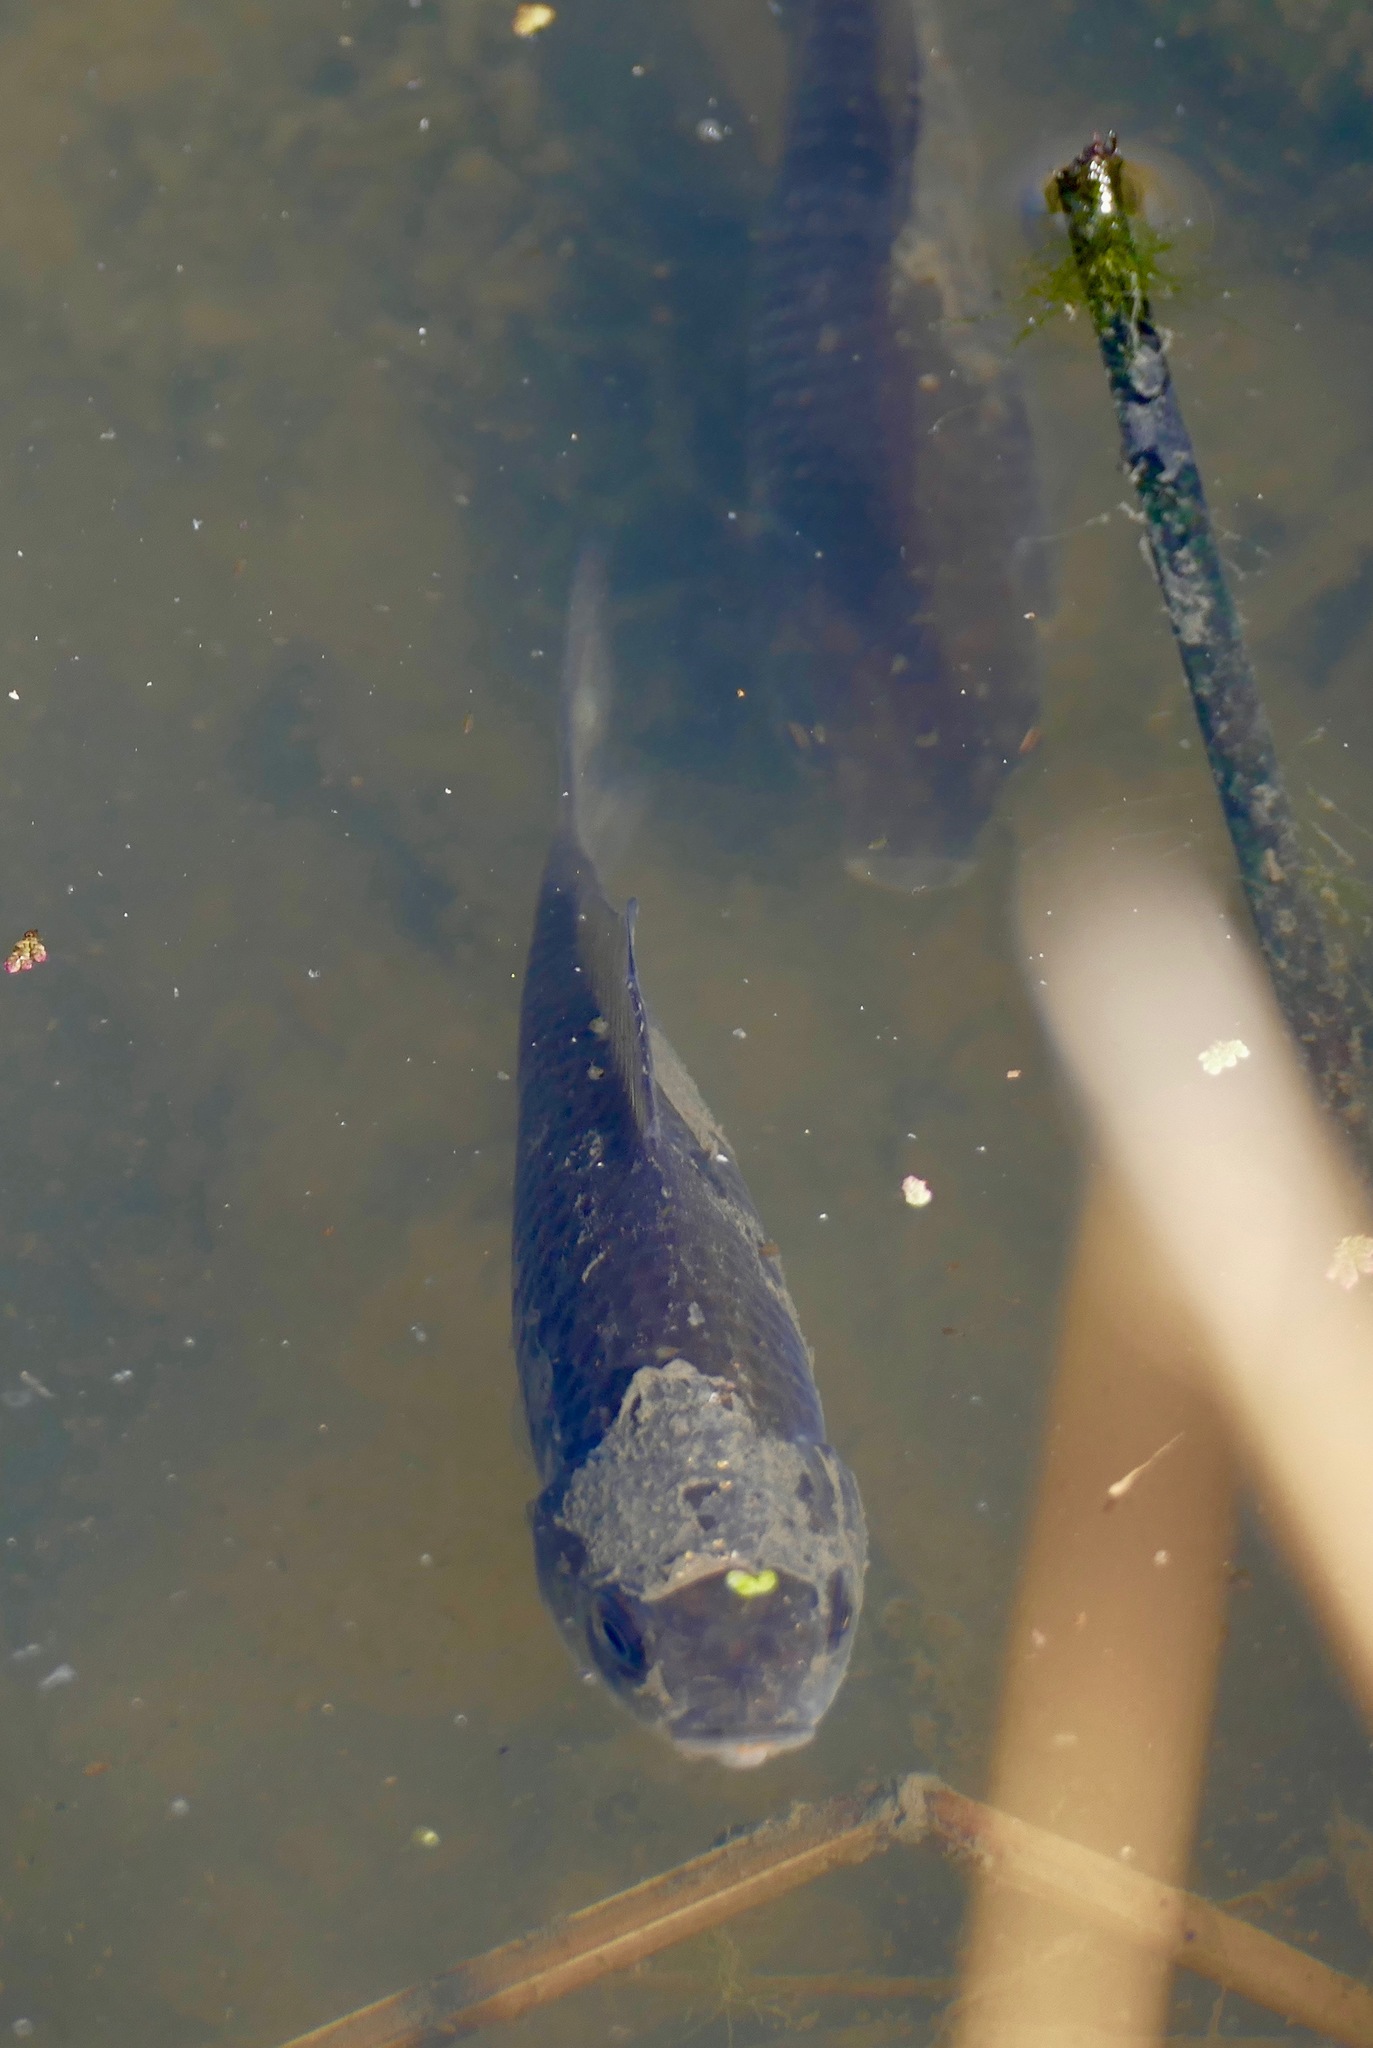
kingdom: Animalia
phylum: Chordata
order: Cypriniformes
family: Cyprinidae
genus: Cyprinus
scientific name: Cyprinus carpio
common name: Common carp
